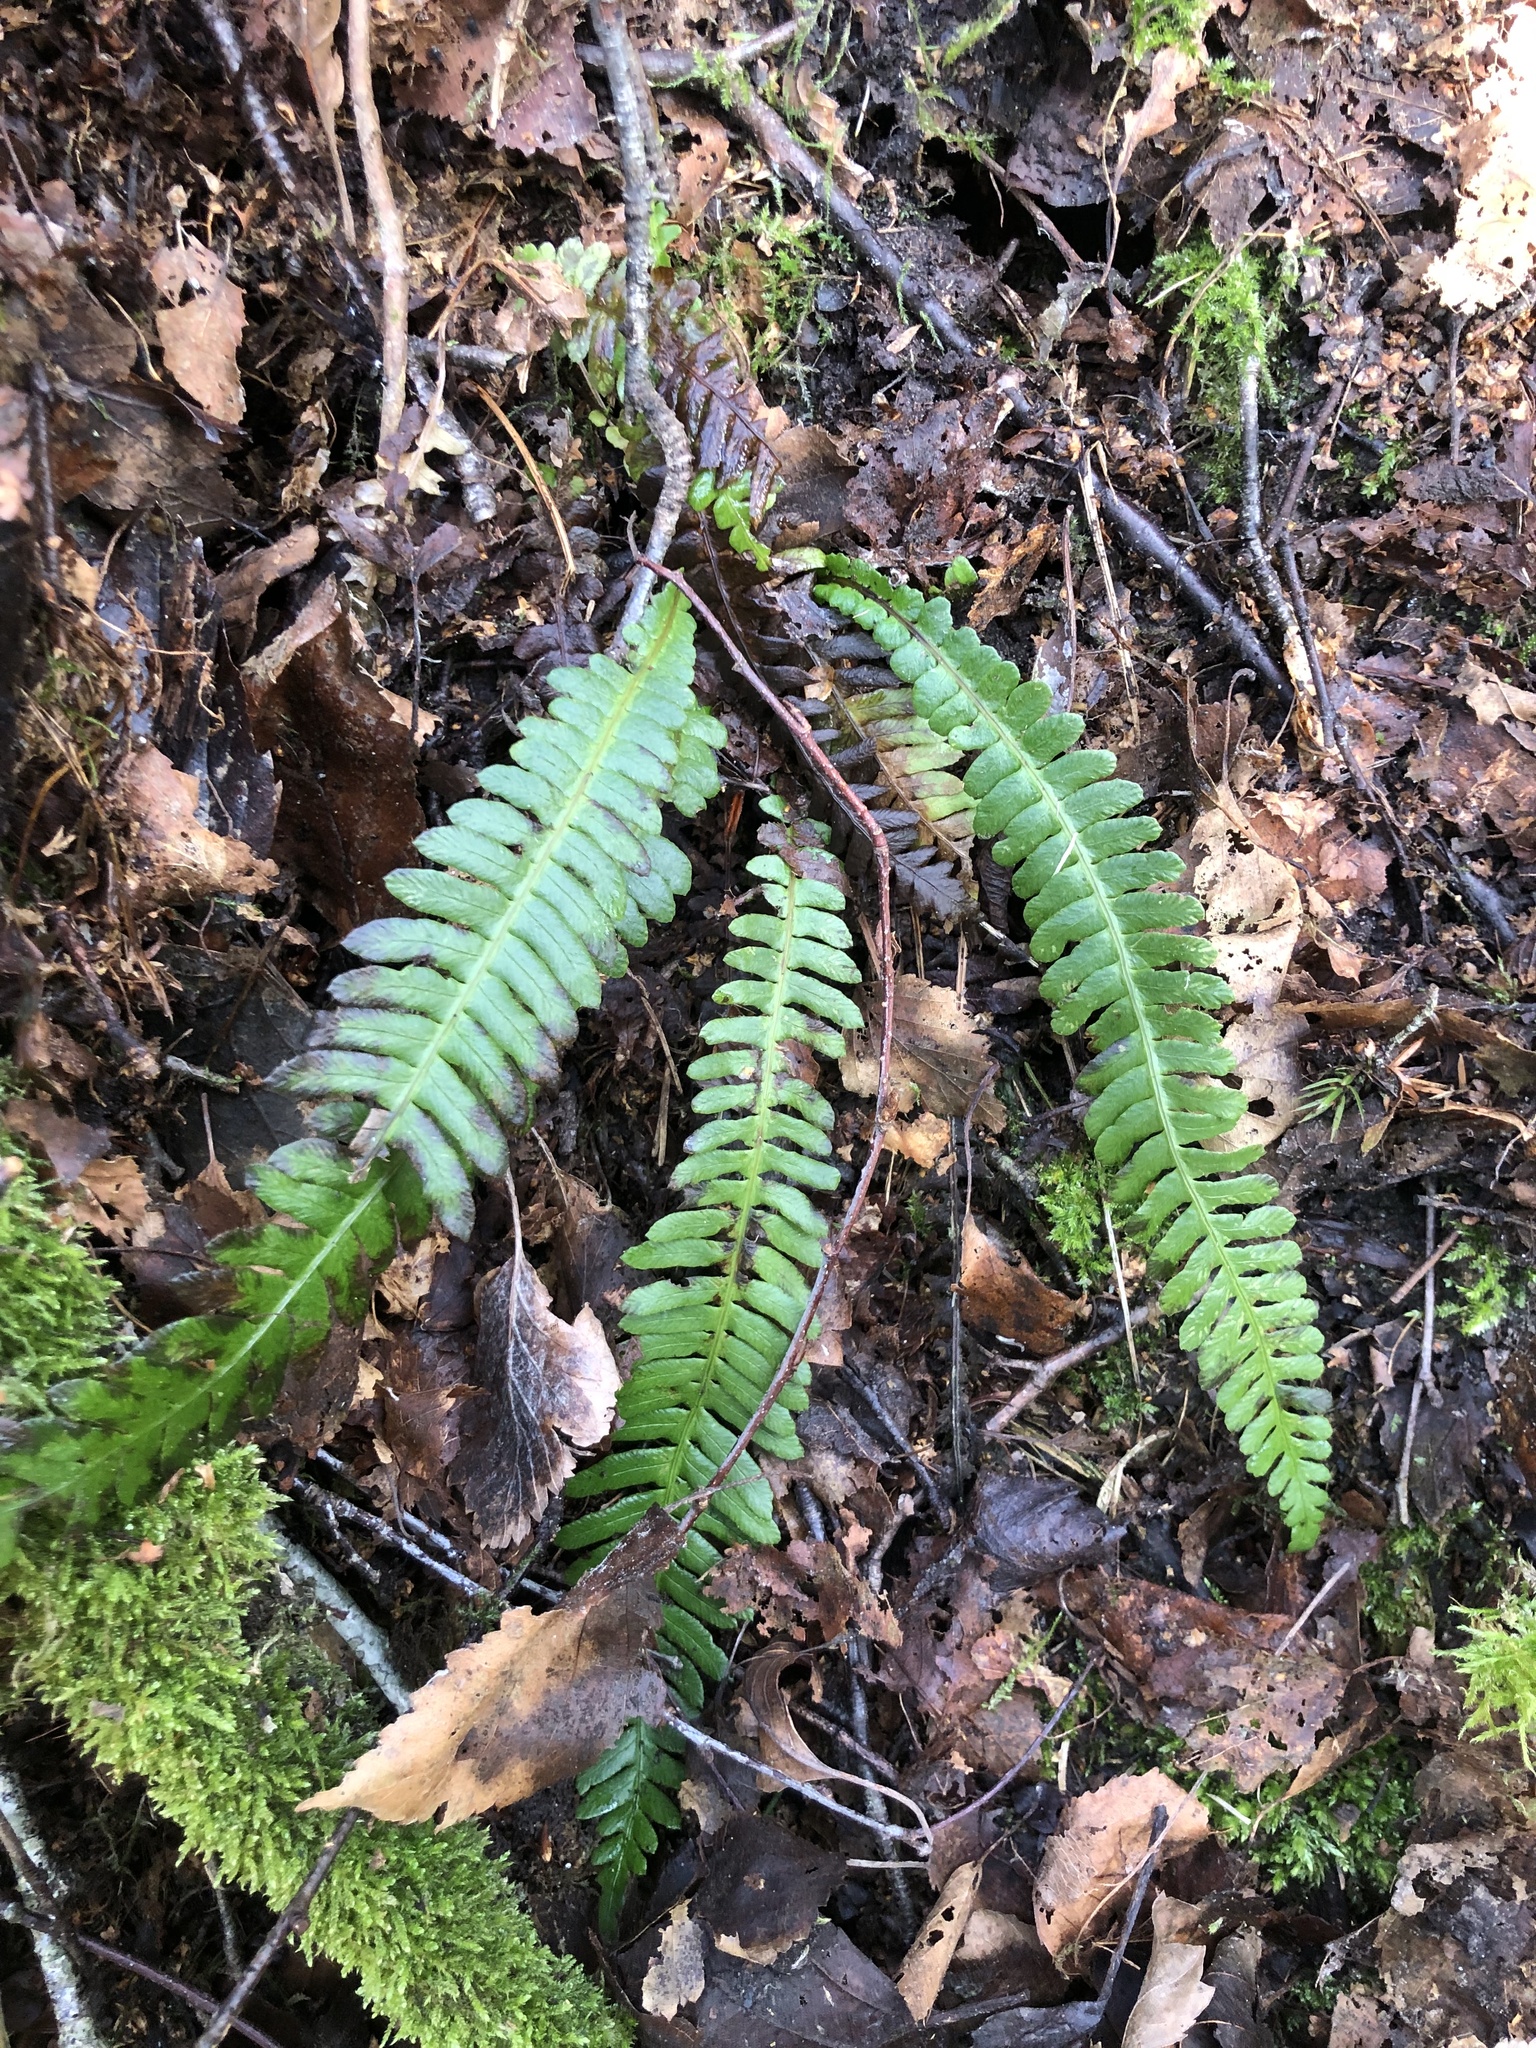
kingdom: Plantae
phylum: Tracheophyta
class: Polypodiopsida
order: Polypodiales
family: Blechnaceae
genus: Struthiopteris
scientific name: Struthiopteris spicant
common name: Deer fern
